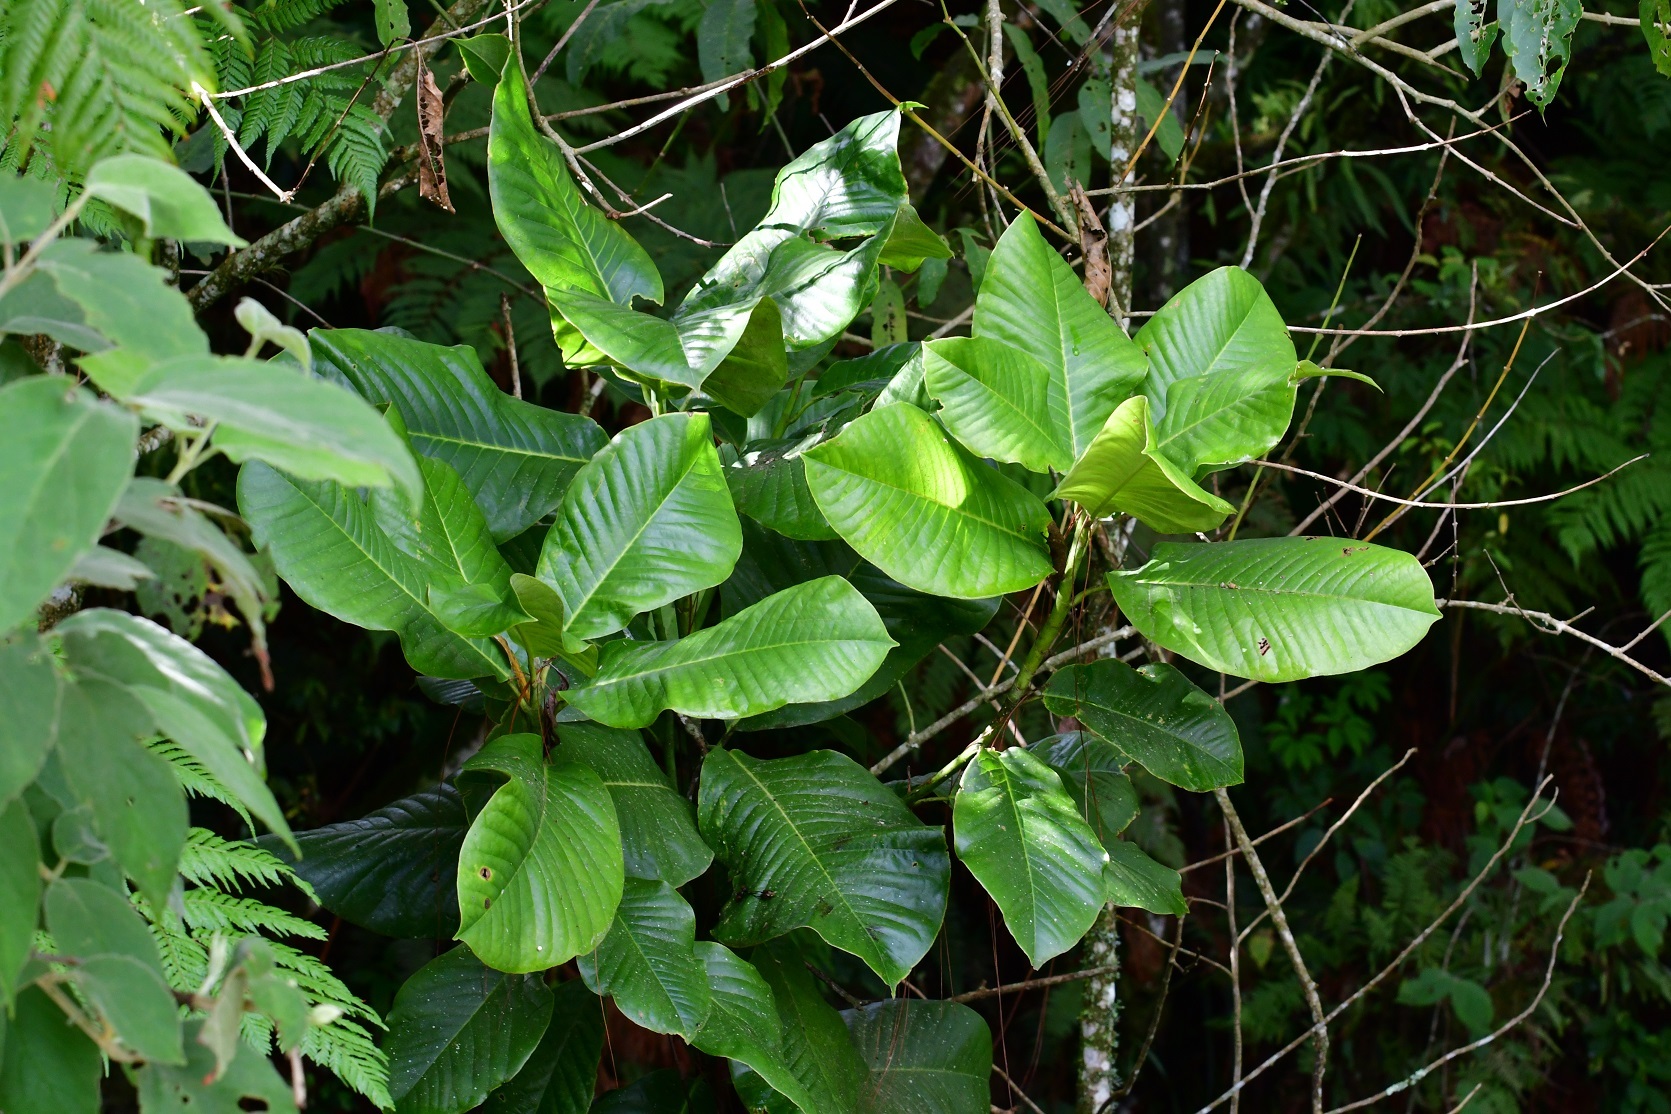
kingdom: Plantae
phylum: Tracheophyta
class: Magnoliopsida
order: Magnoliales
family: Magnoliaceae
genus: Magnolia
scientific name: Magnolia sharpii
